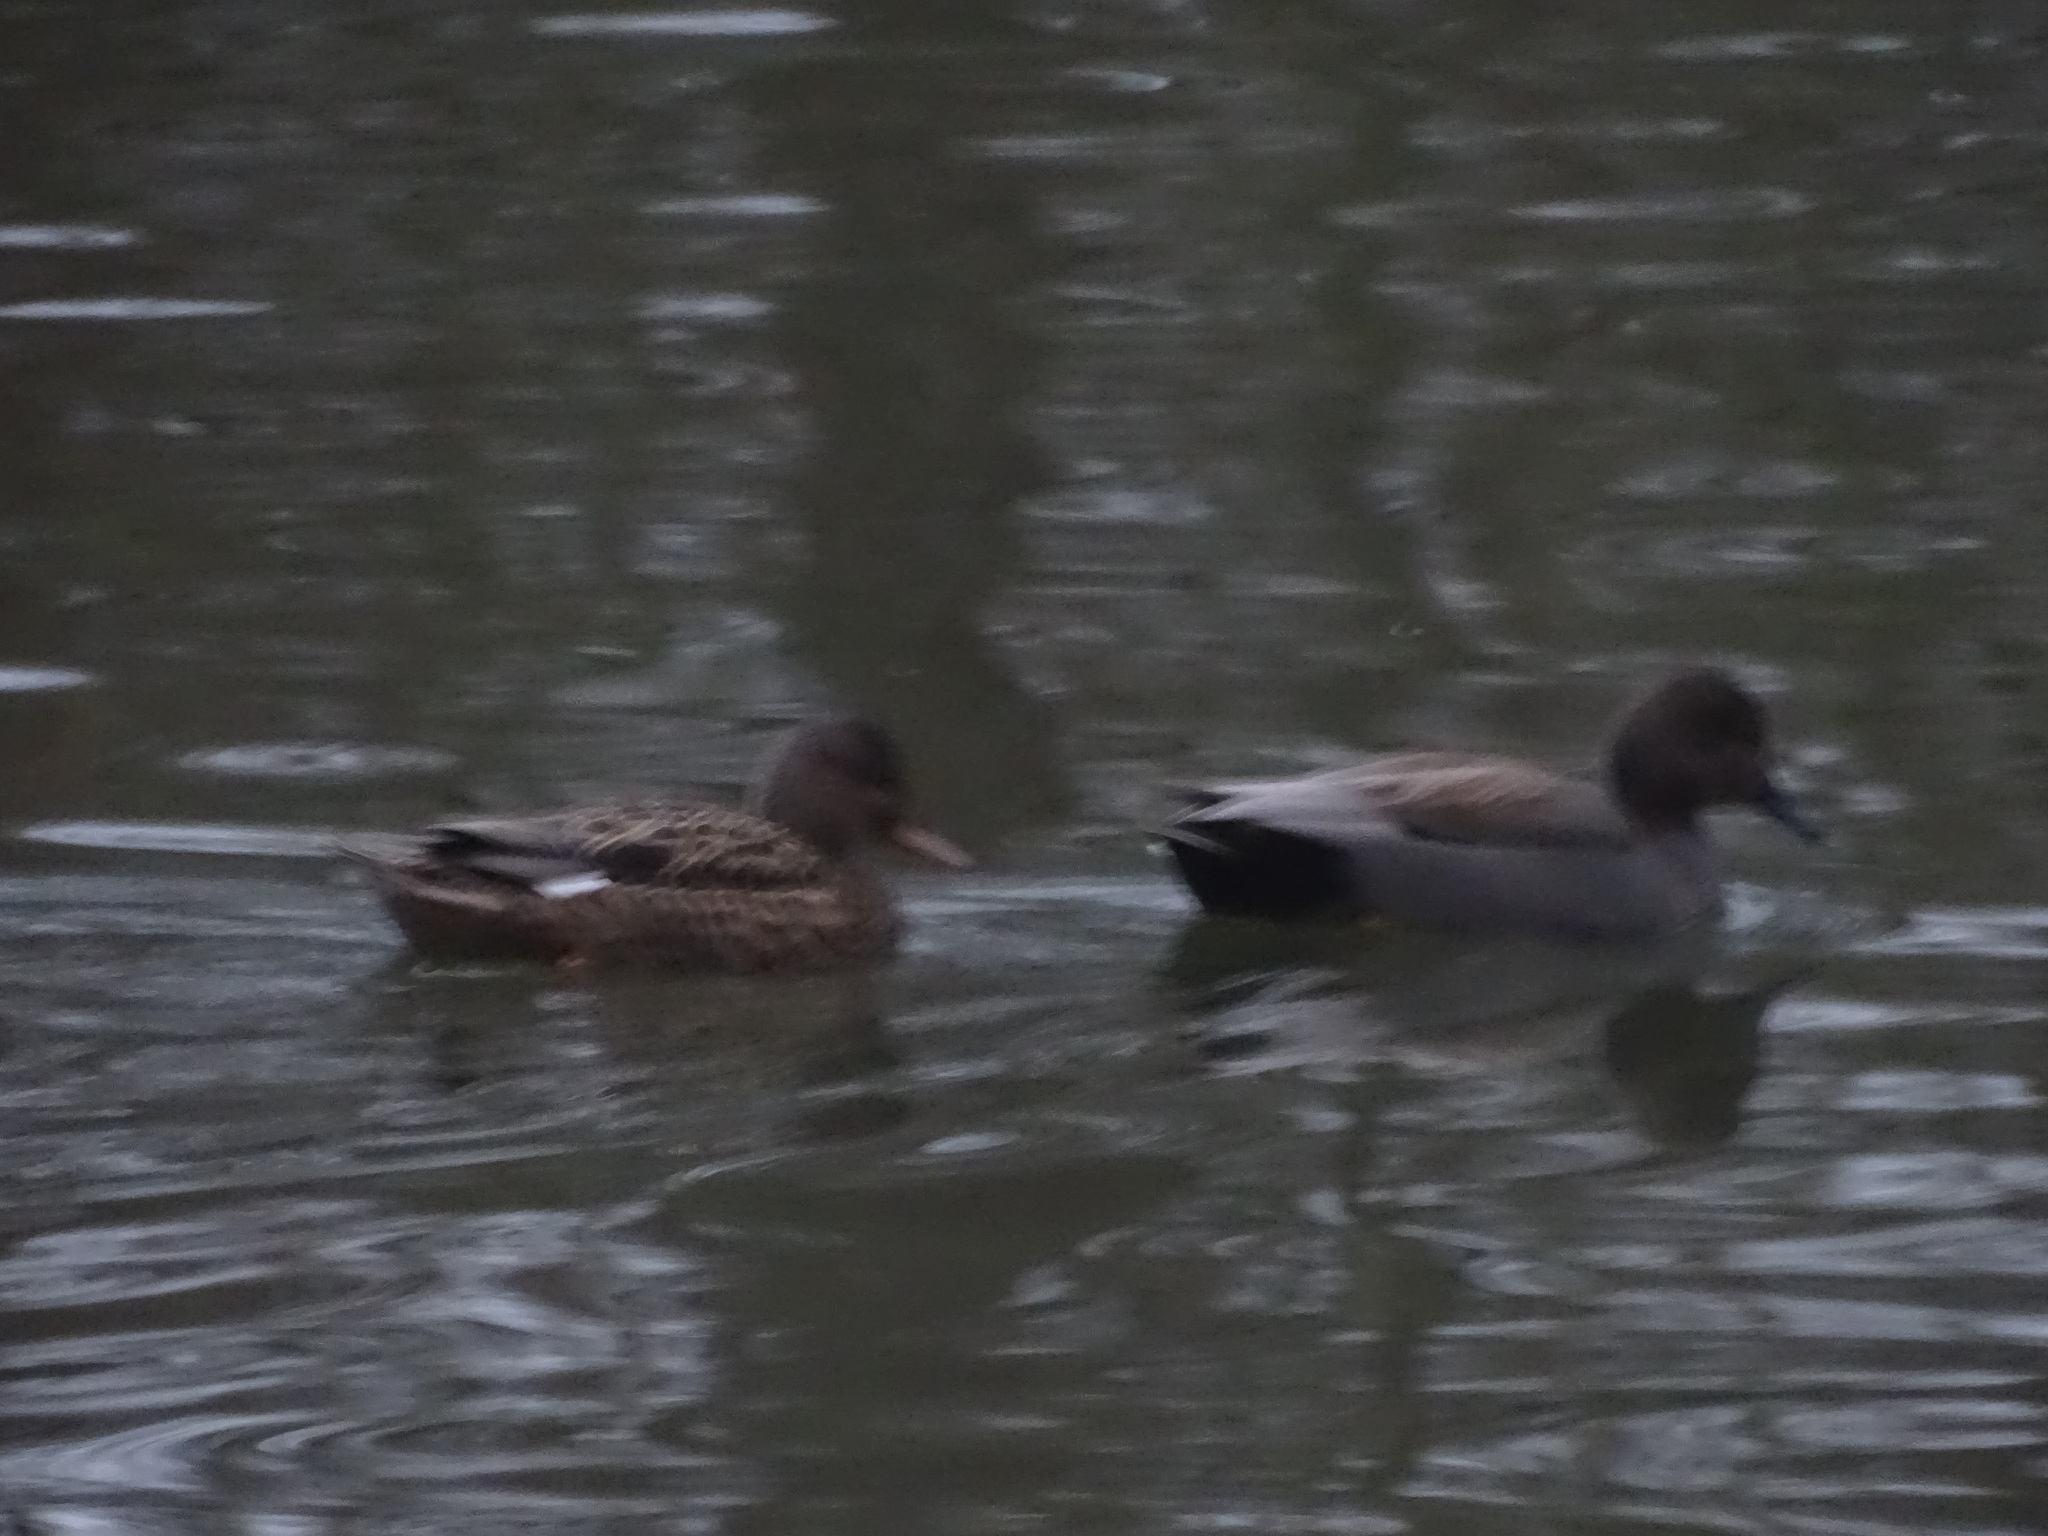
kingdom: Animalia
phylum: Chordata
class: Aves
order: Anseriformes
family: Anatidae
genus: Mareca
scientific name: Mareca strepera
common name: Gadwall
